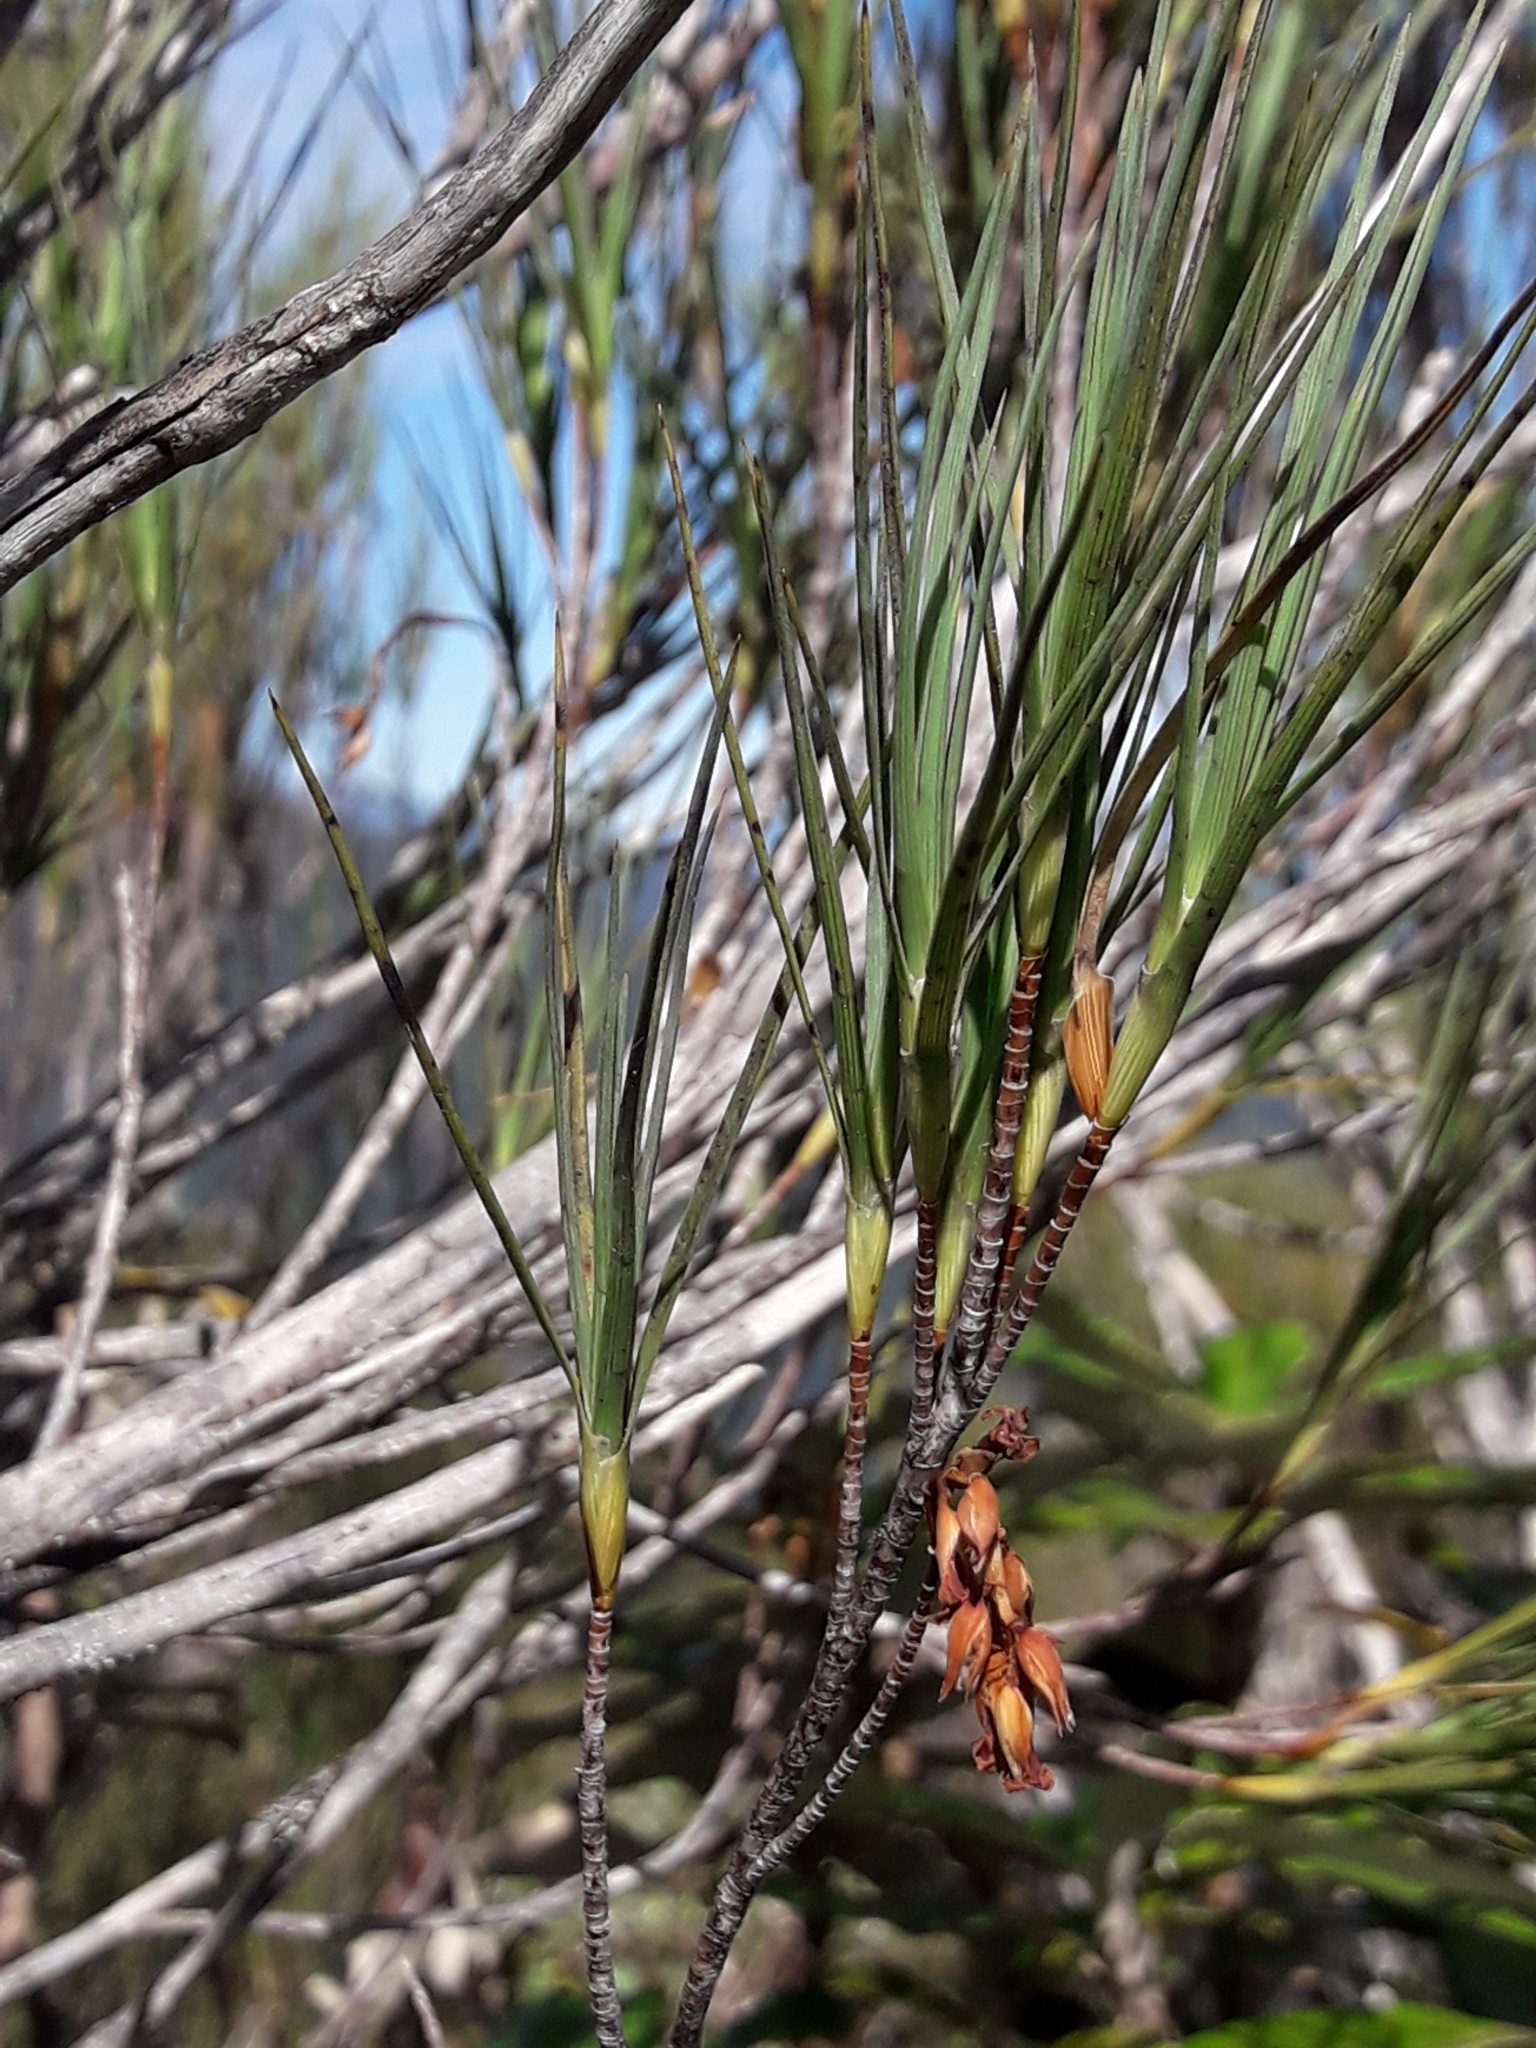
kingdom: Plantae
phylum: Tracheophyta
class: Magnoliopsida
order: Ericales
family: Ericaceae
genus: Dracophyllum
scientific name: Dracophyllum longifolium
